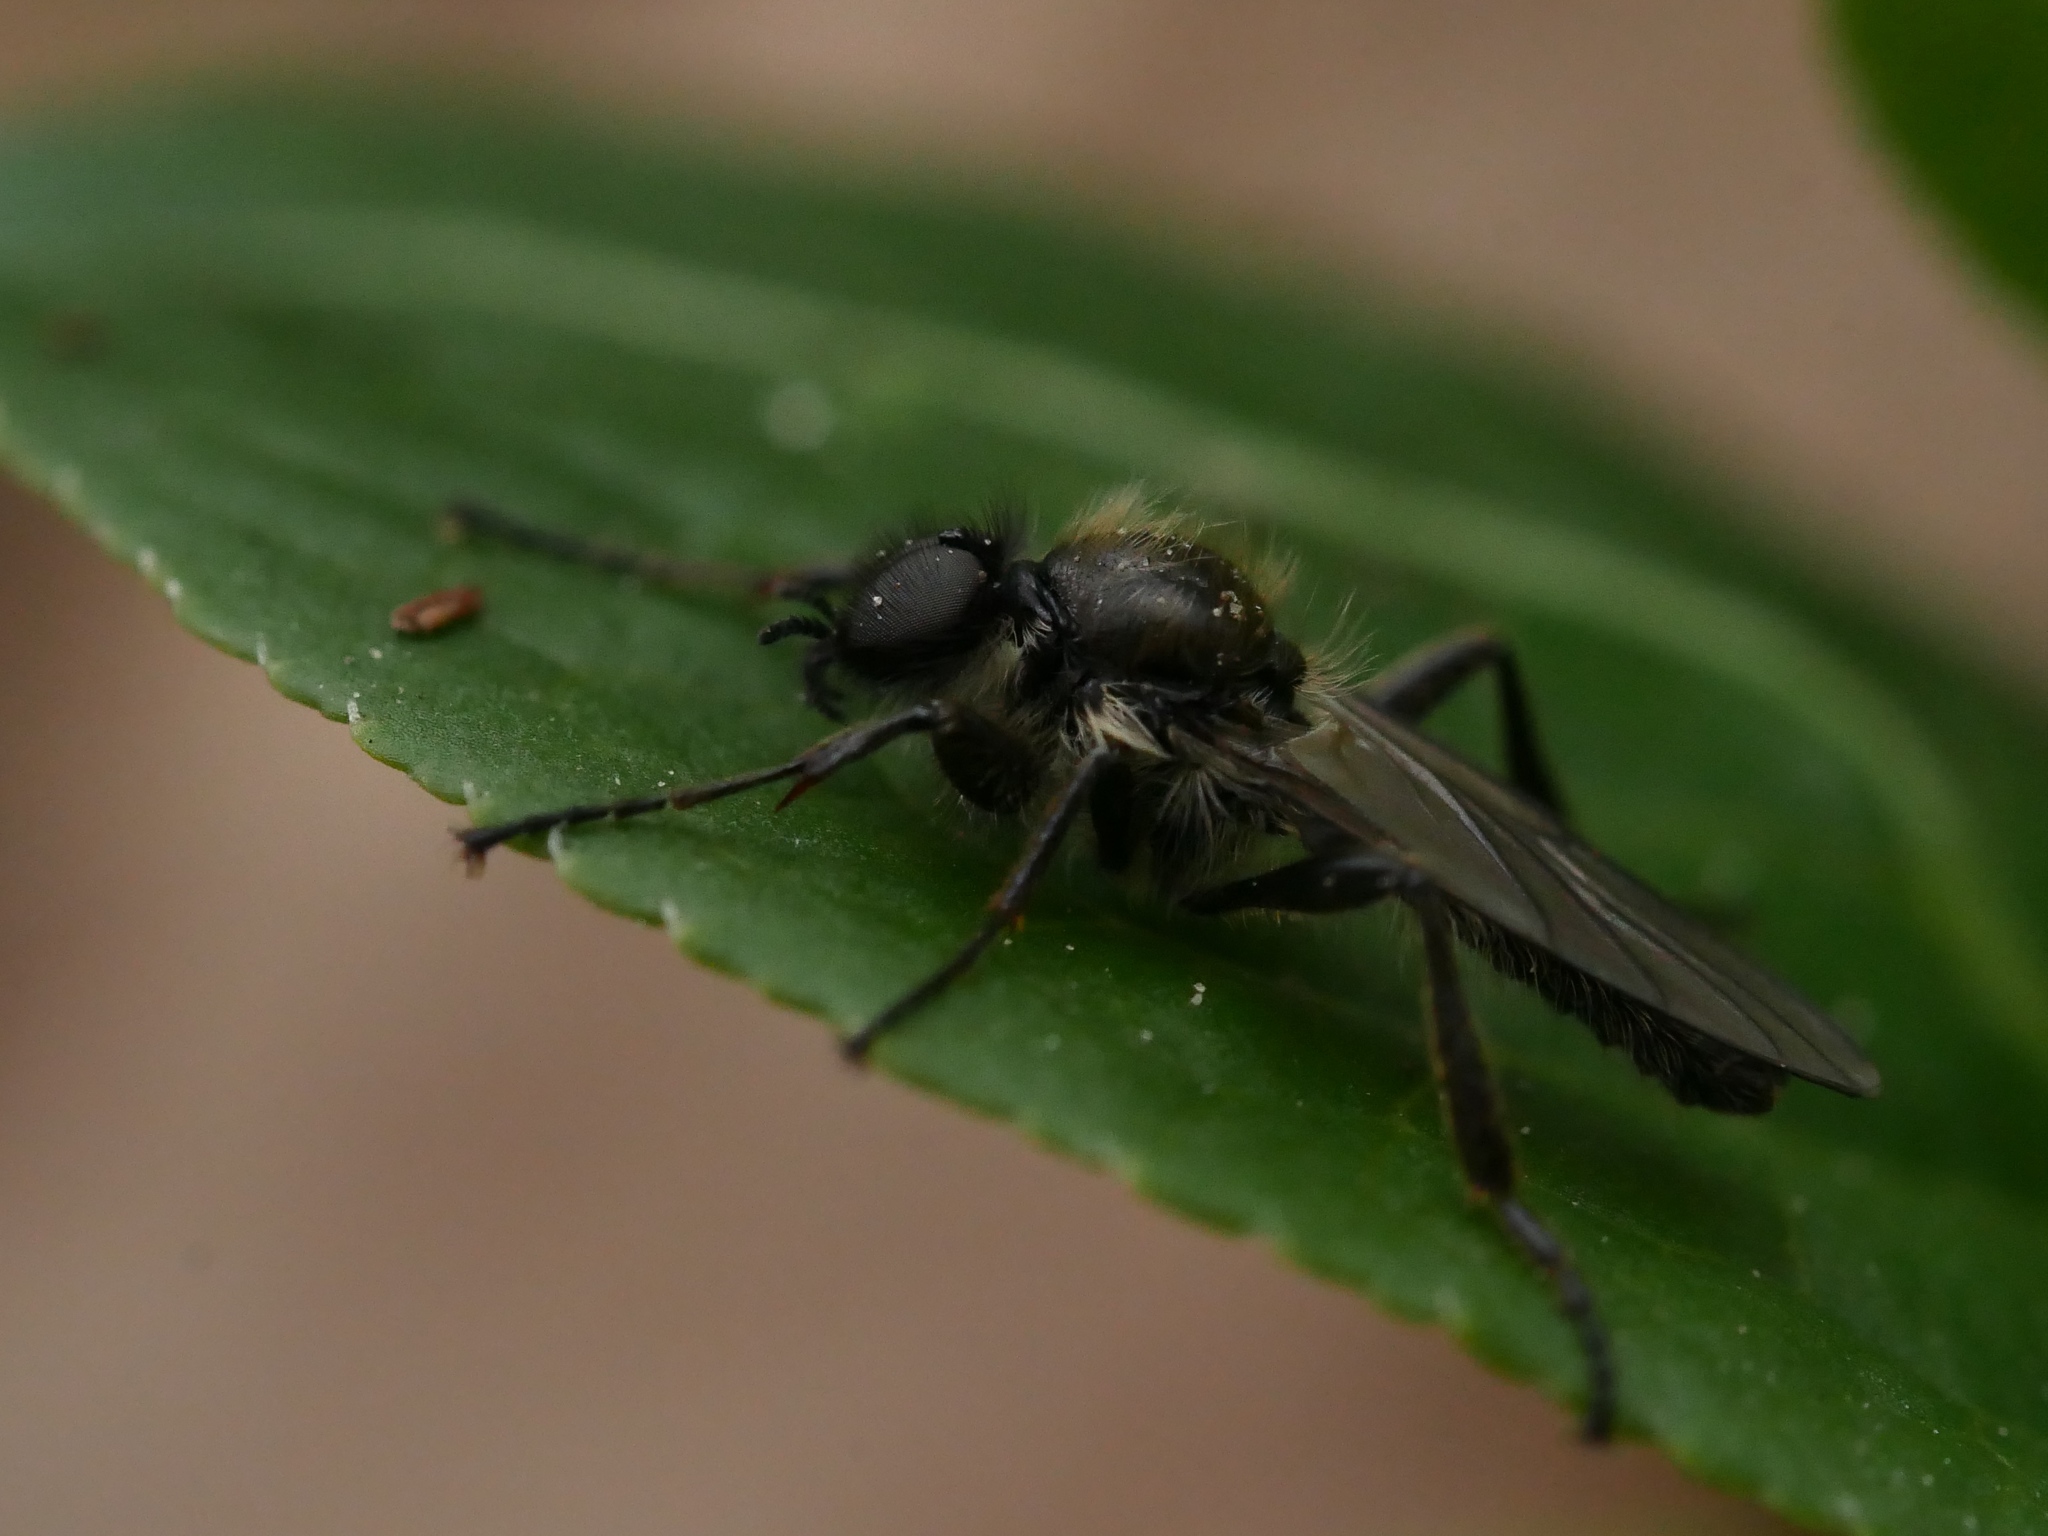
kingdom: Animalia
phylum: Arthropoda
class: Insecta
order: Diptera
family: Bibionidae
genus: Bibio
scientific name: Bibio marci
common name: St marks fly
